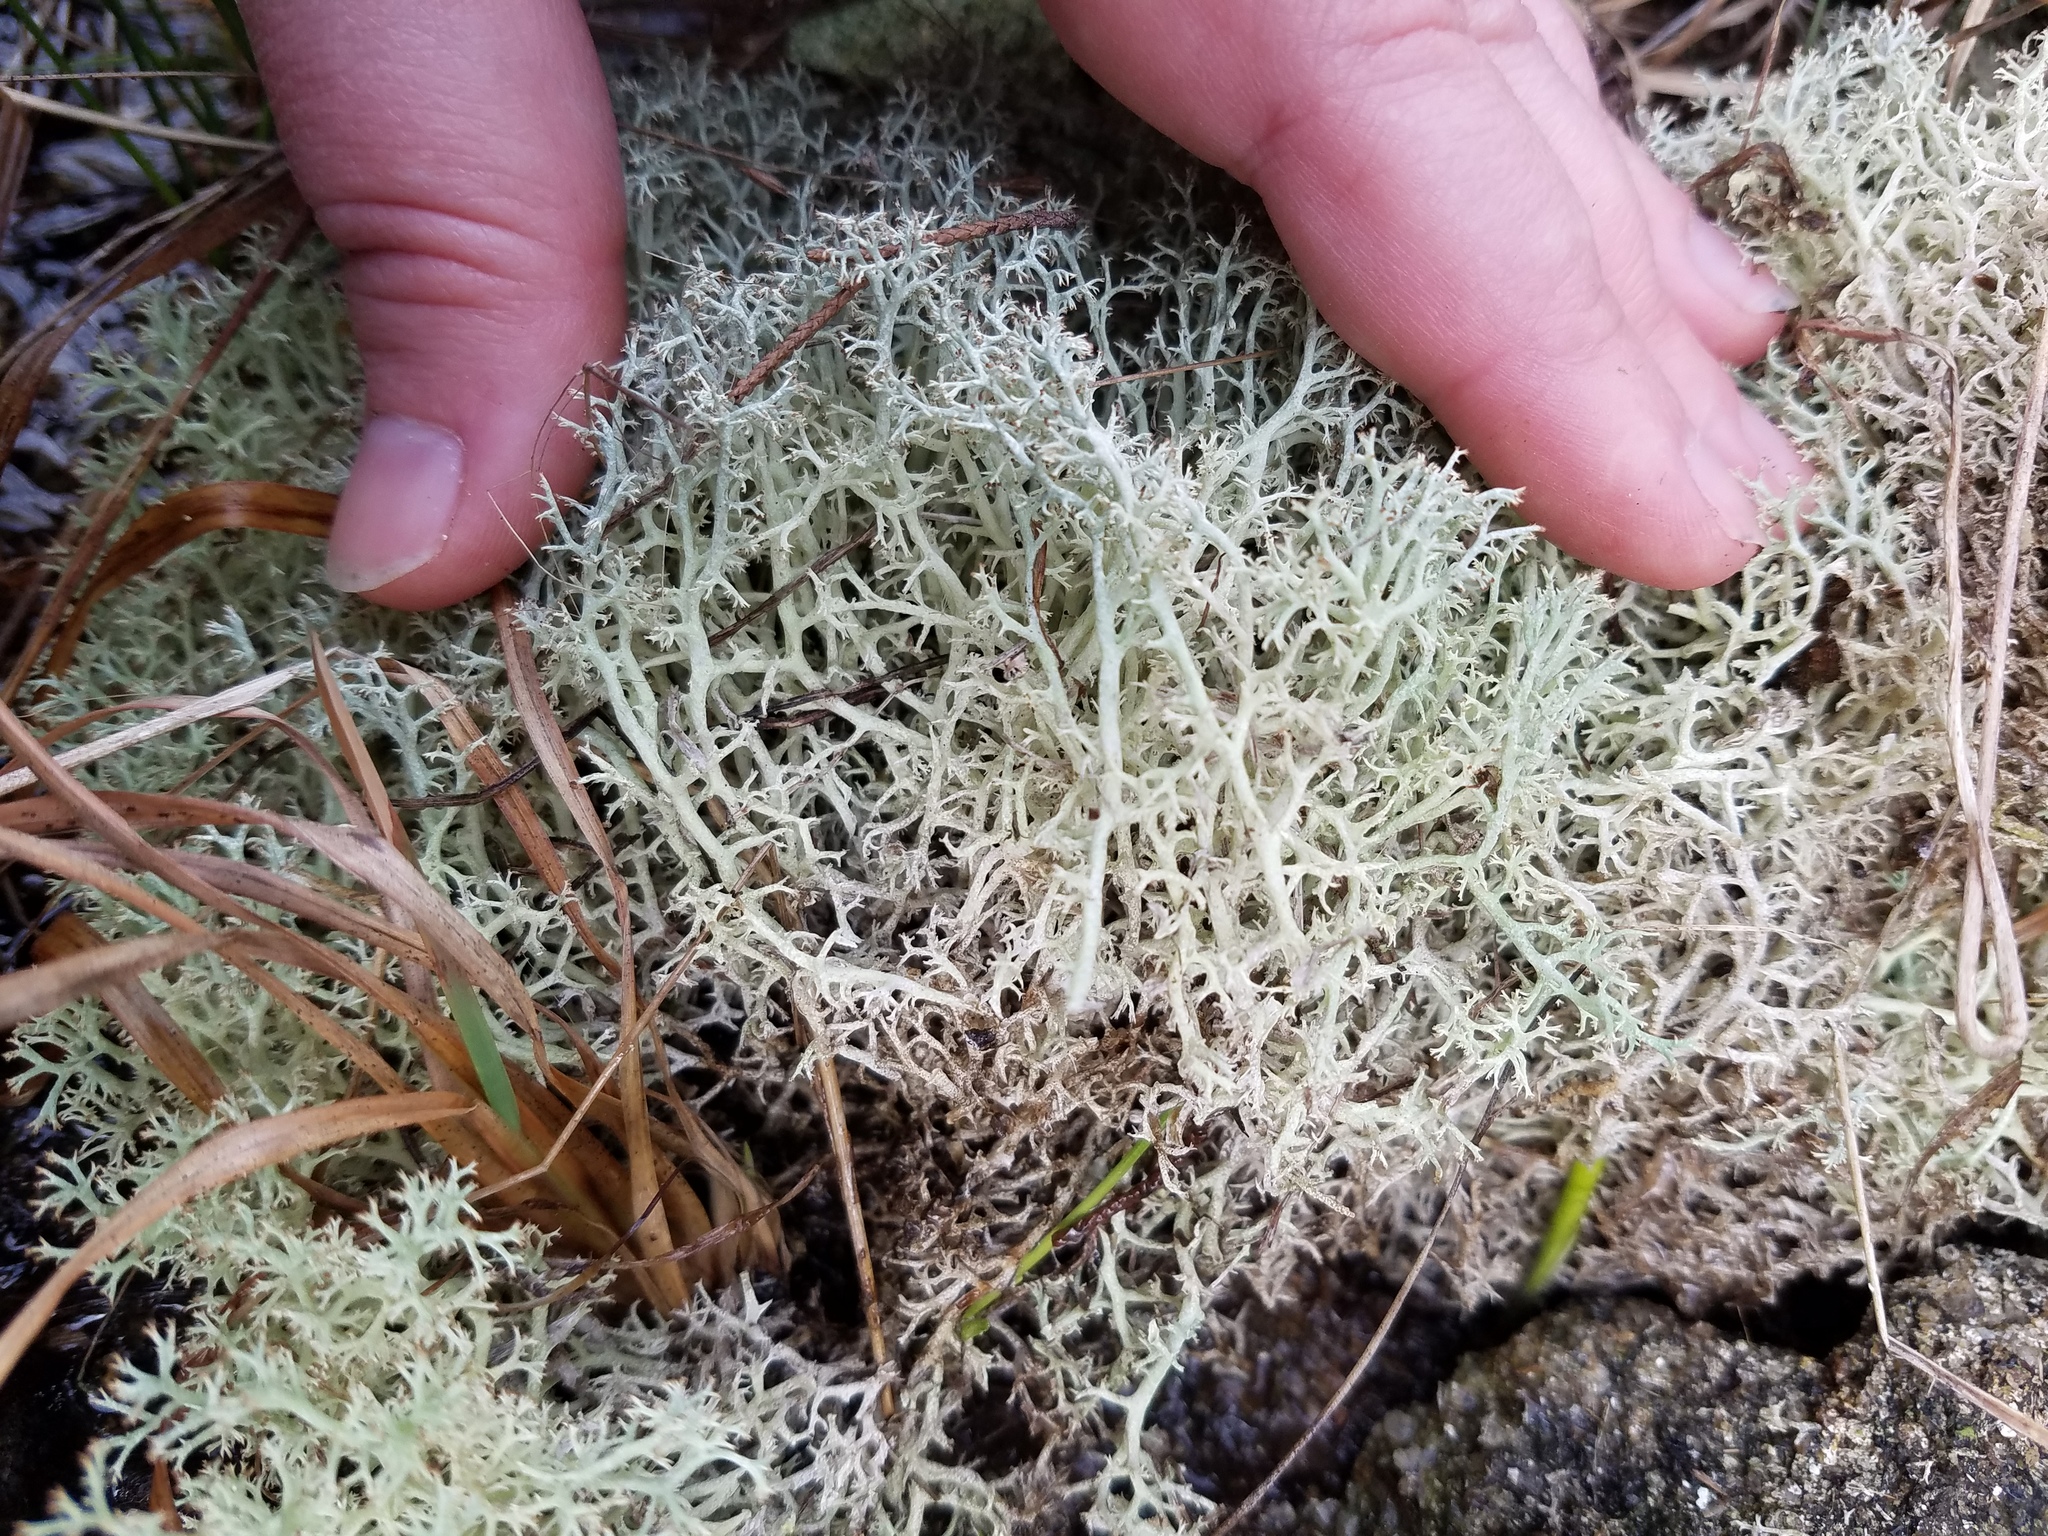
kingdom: Fungi
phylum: Ascomycota
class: Lecanoromycetes
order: Lecanorales
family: Cladoniaceae
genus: Cladonia
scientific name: Cladonia rangiferina
